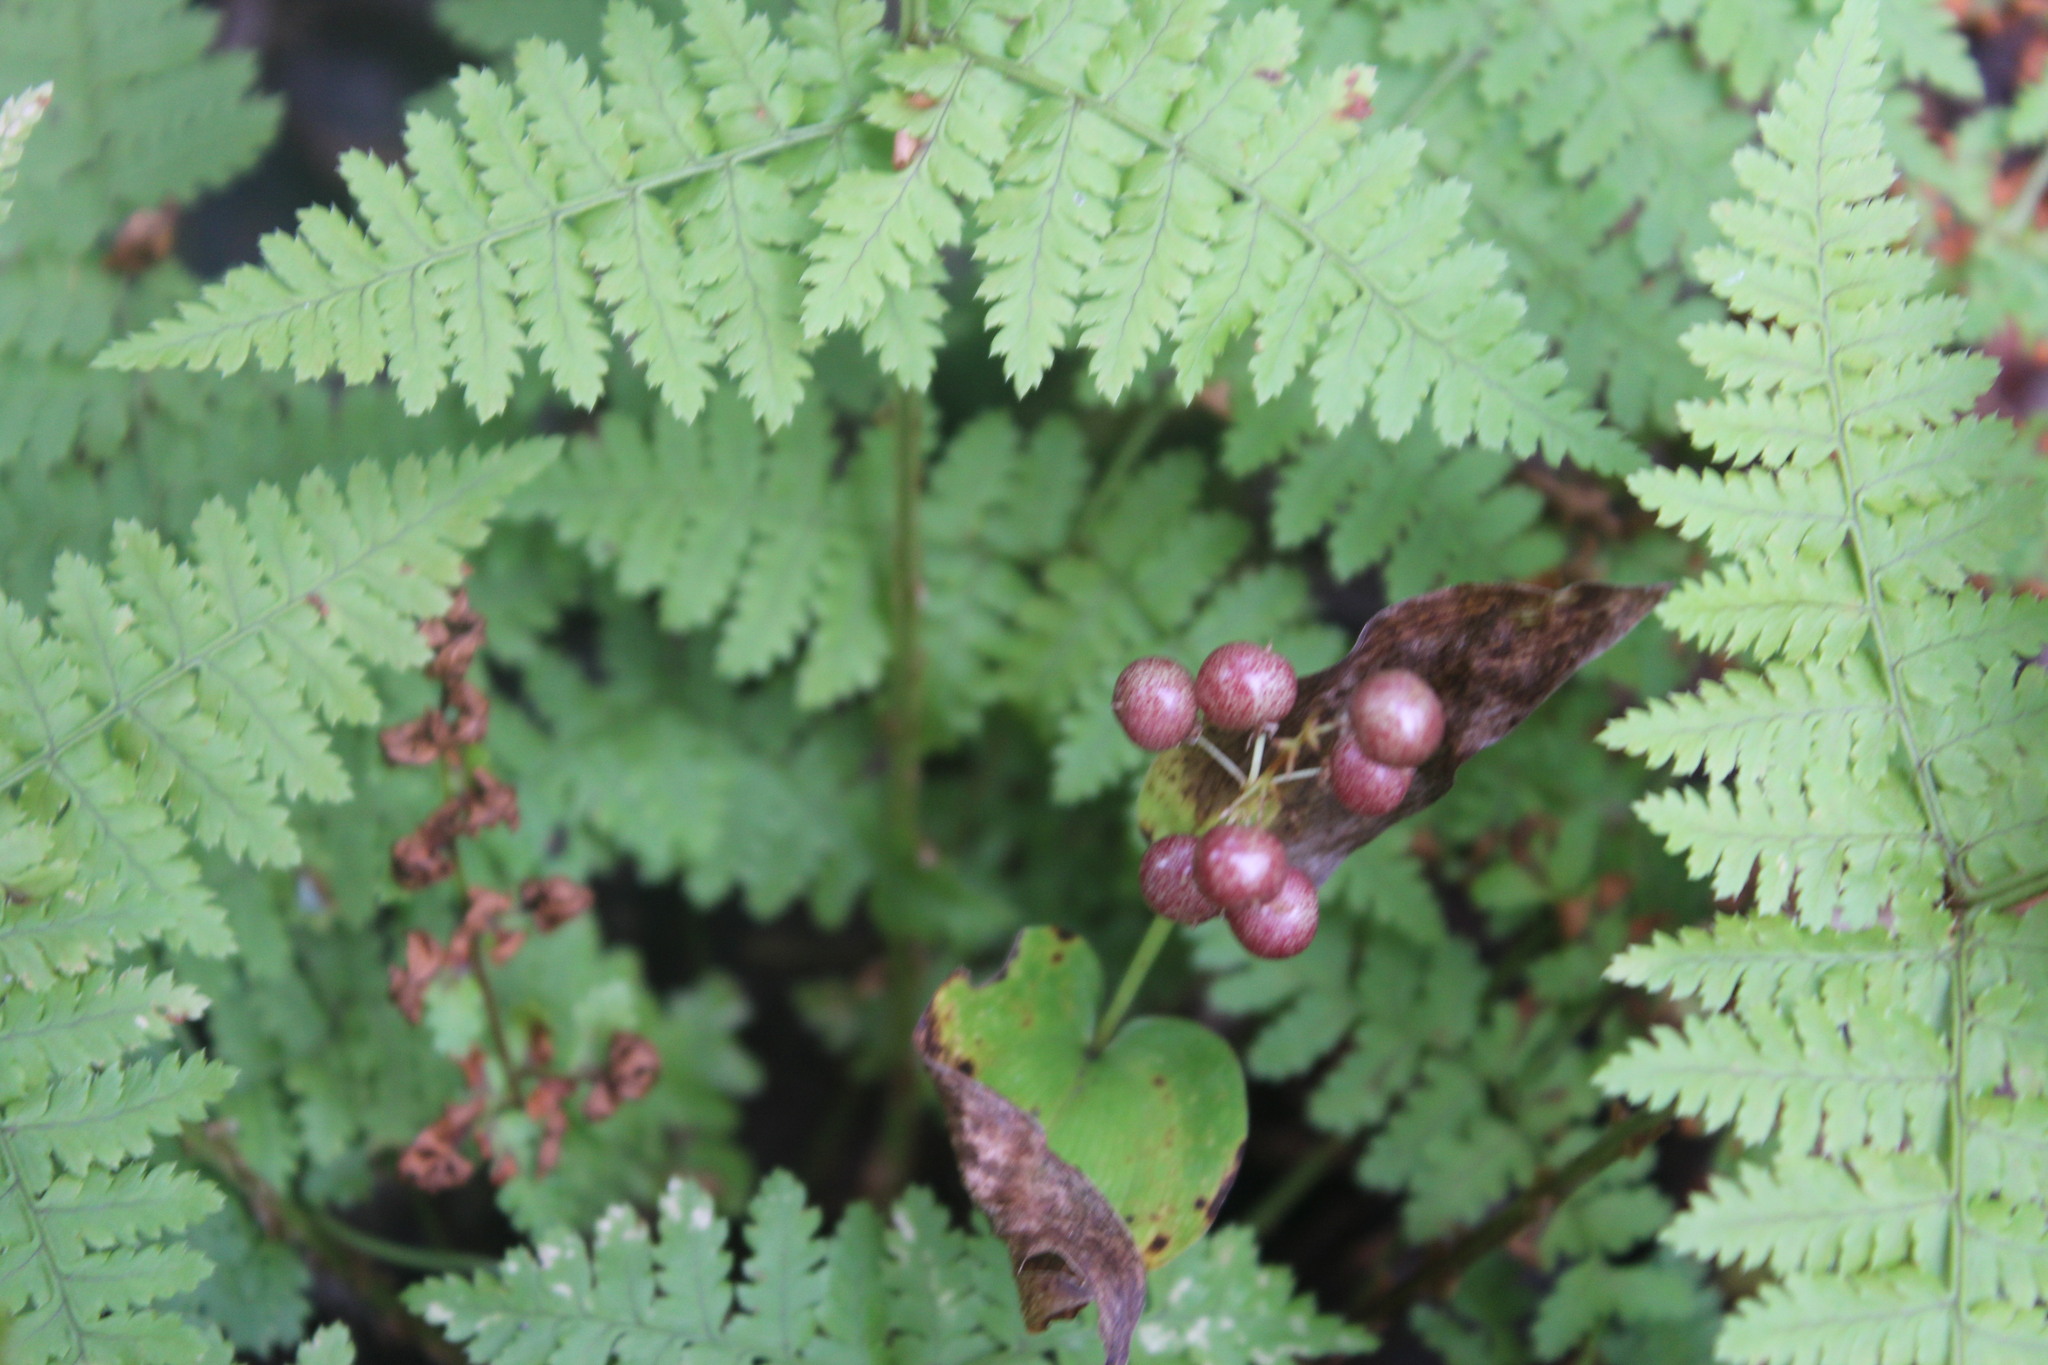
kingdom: Plantae
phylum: Tracheophyta
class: Liliopsida
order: Asparagales
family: Asparagaceae
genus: Maianthemum
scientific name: Maianthemum canadense
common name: False lily-of-the-valley
